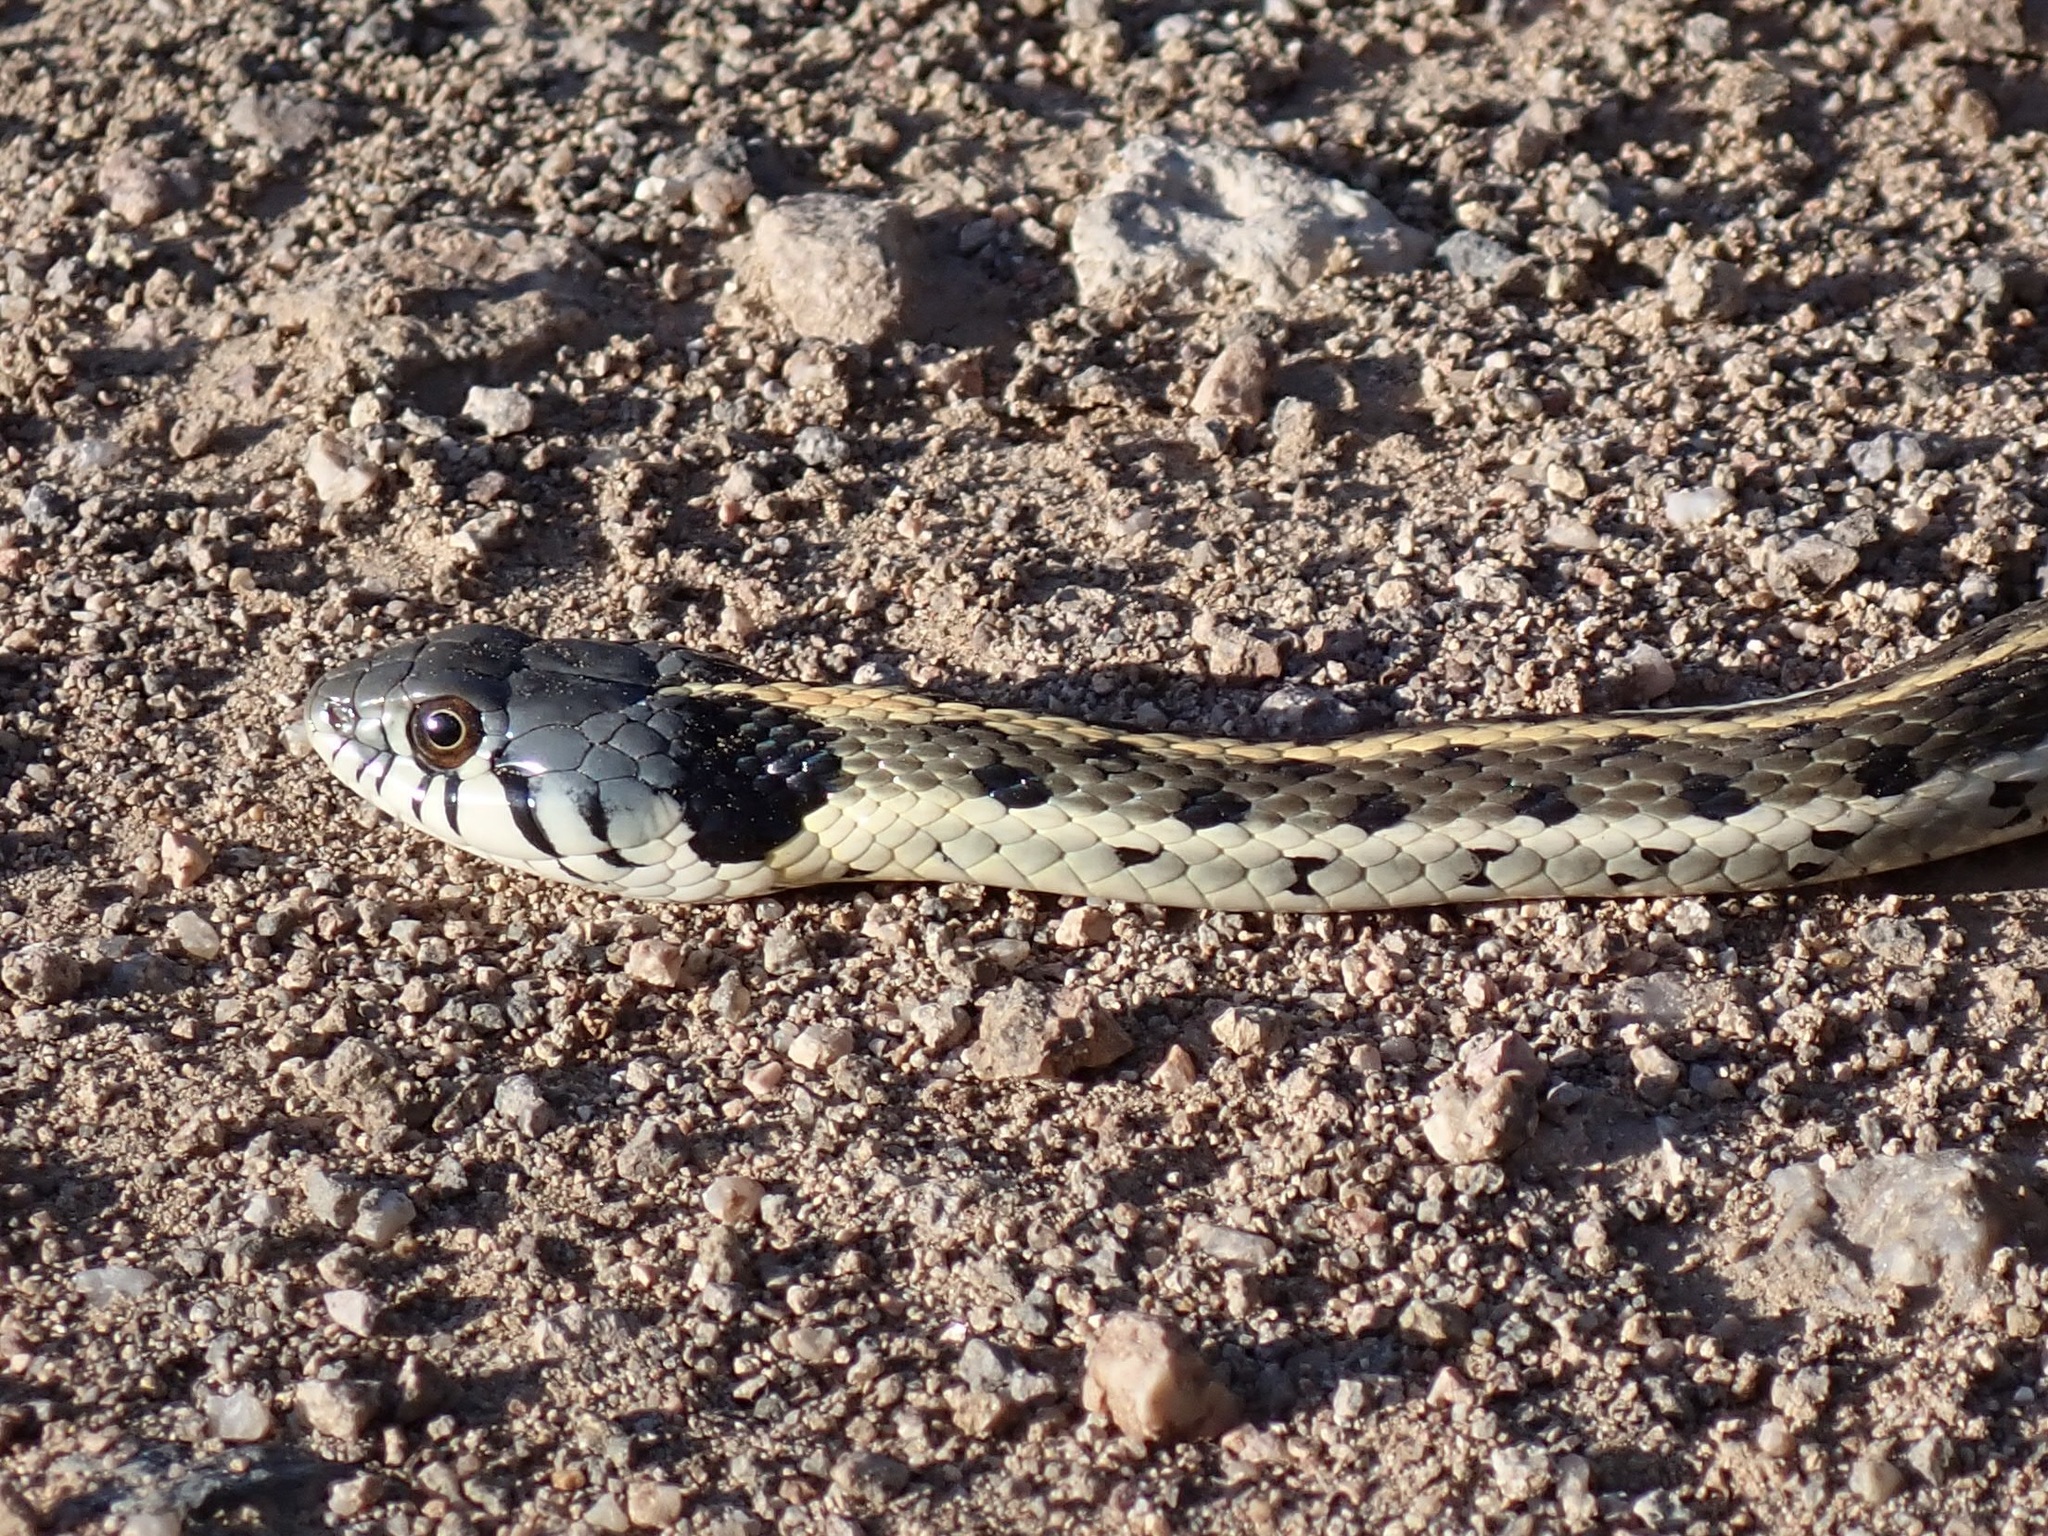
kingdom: Animalia
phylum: Chordata
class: Squamata
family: Colubridae
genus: Thamnophis
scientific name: Thamnophis cyrtopsis
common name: Black-necked gartersnake
